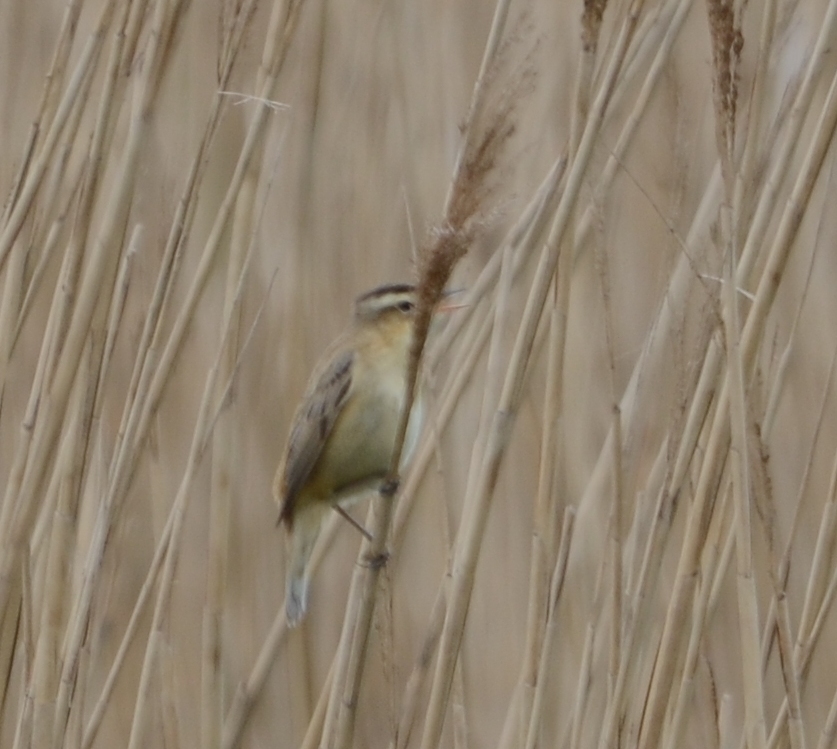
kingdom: Animalia
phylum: Chordata
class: Aves
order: Passeriformes
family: Acrocephalidae
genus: Acrocephalus
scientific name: Acrocephalus schoenobaenus
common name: Sedge warbler
